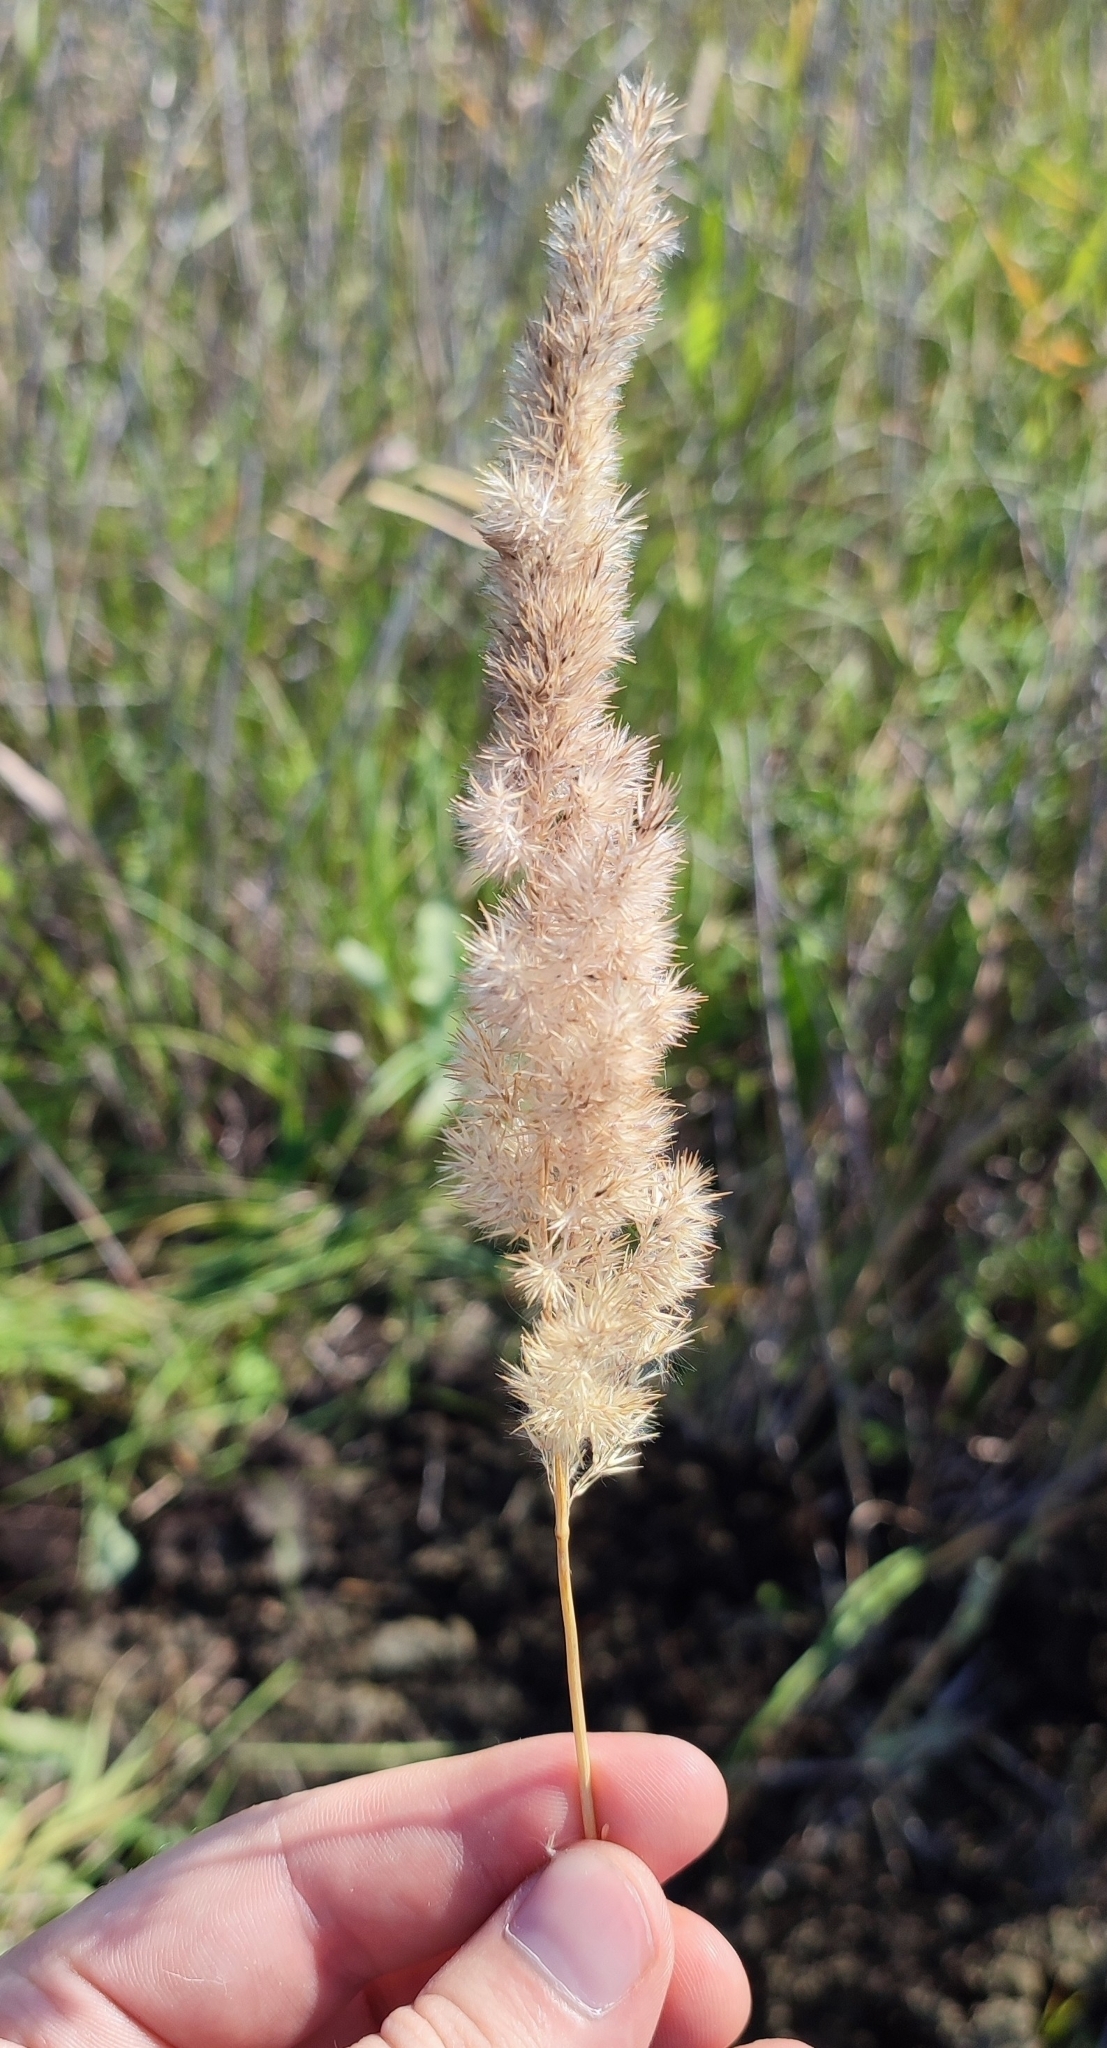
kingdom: Plantae
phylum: Tracheophyta
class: Liliopsida
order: Poales
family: Poaceae
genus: Calamagrostis
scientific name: Calamagrostis epigejos
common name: Wood small-reed
